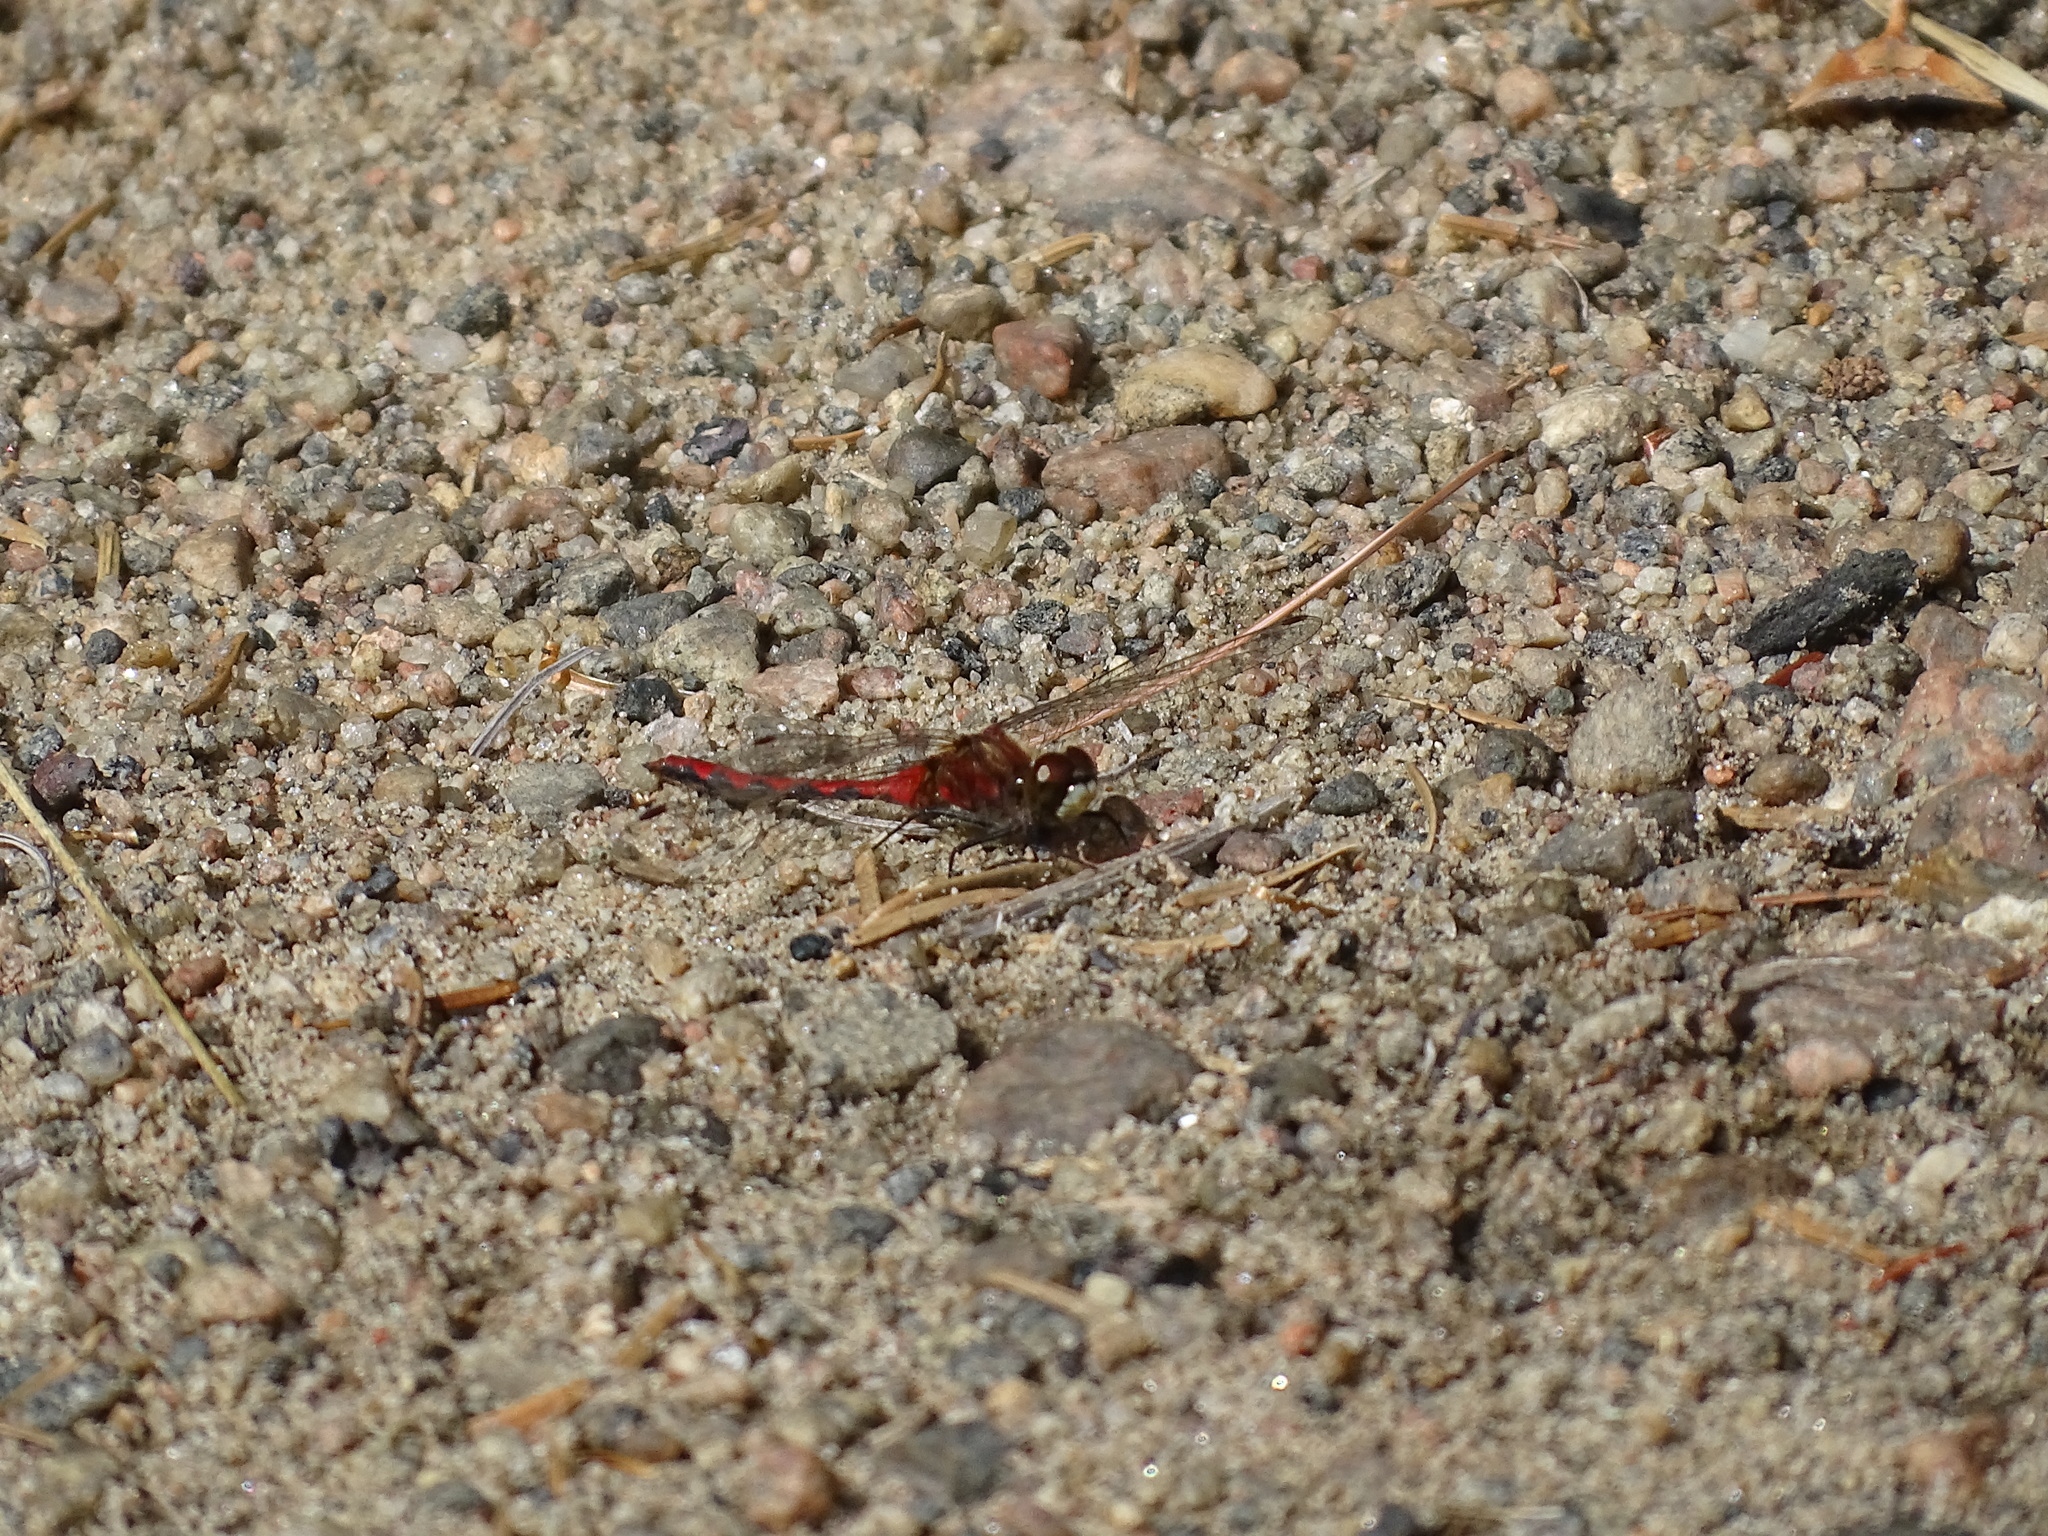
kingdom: Animalia
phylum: Arthropoda
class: Insecta
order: Odonata
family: Libellulidae
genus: Sympetrum
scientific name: Sympetrum obtrusum
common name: White-faced meadowhawk
